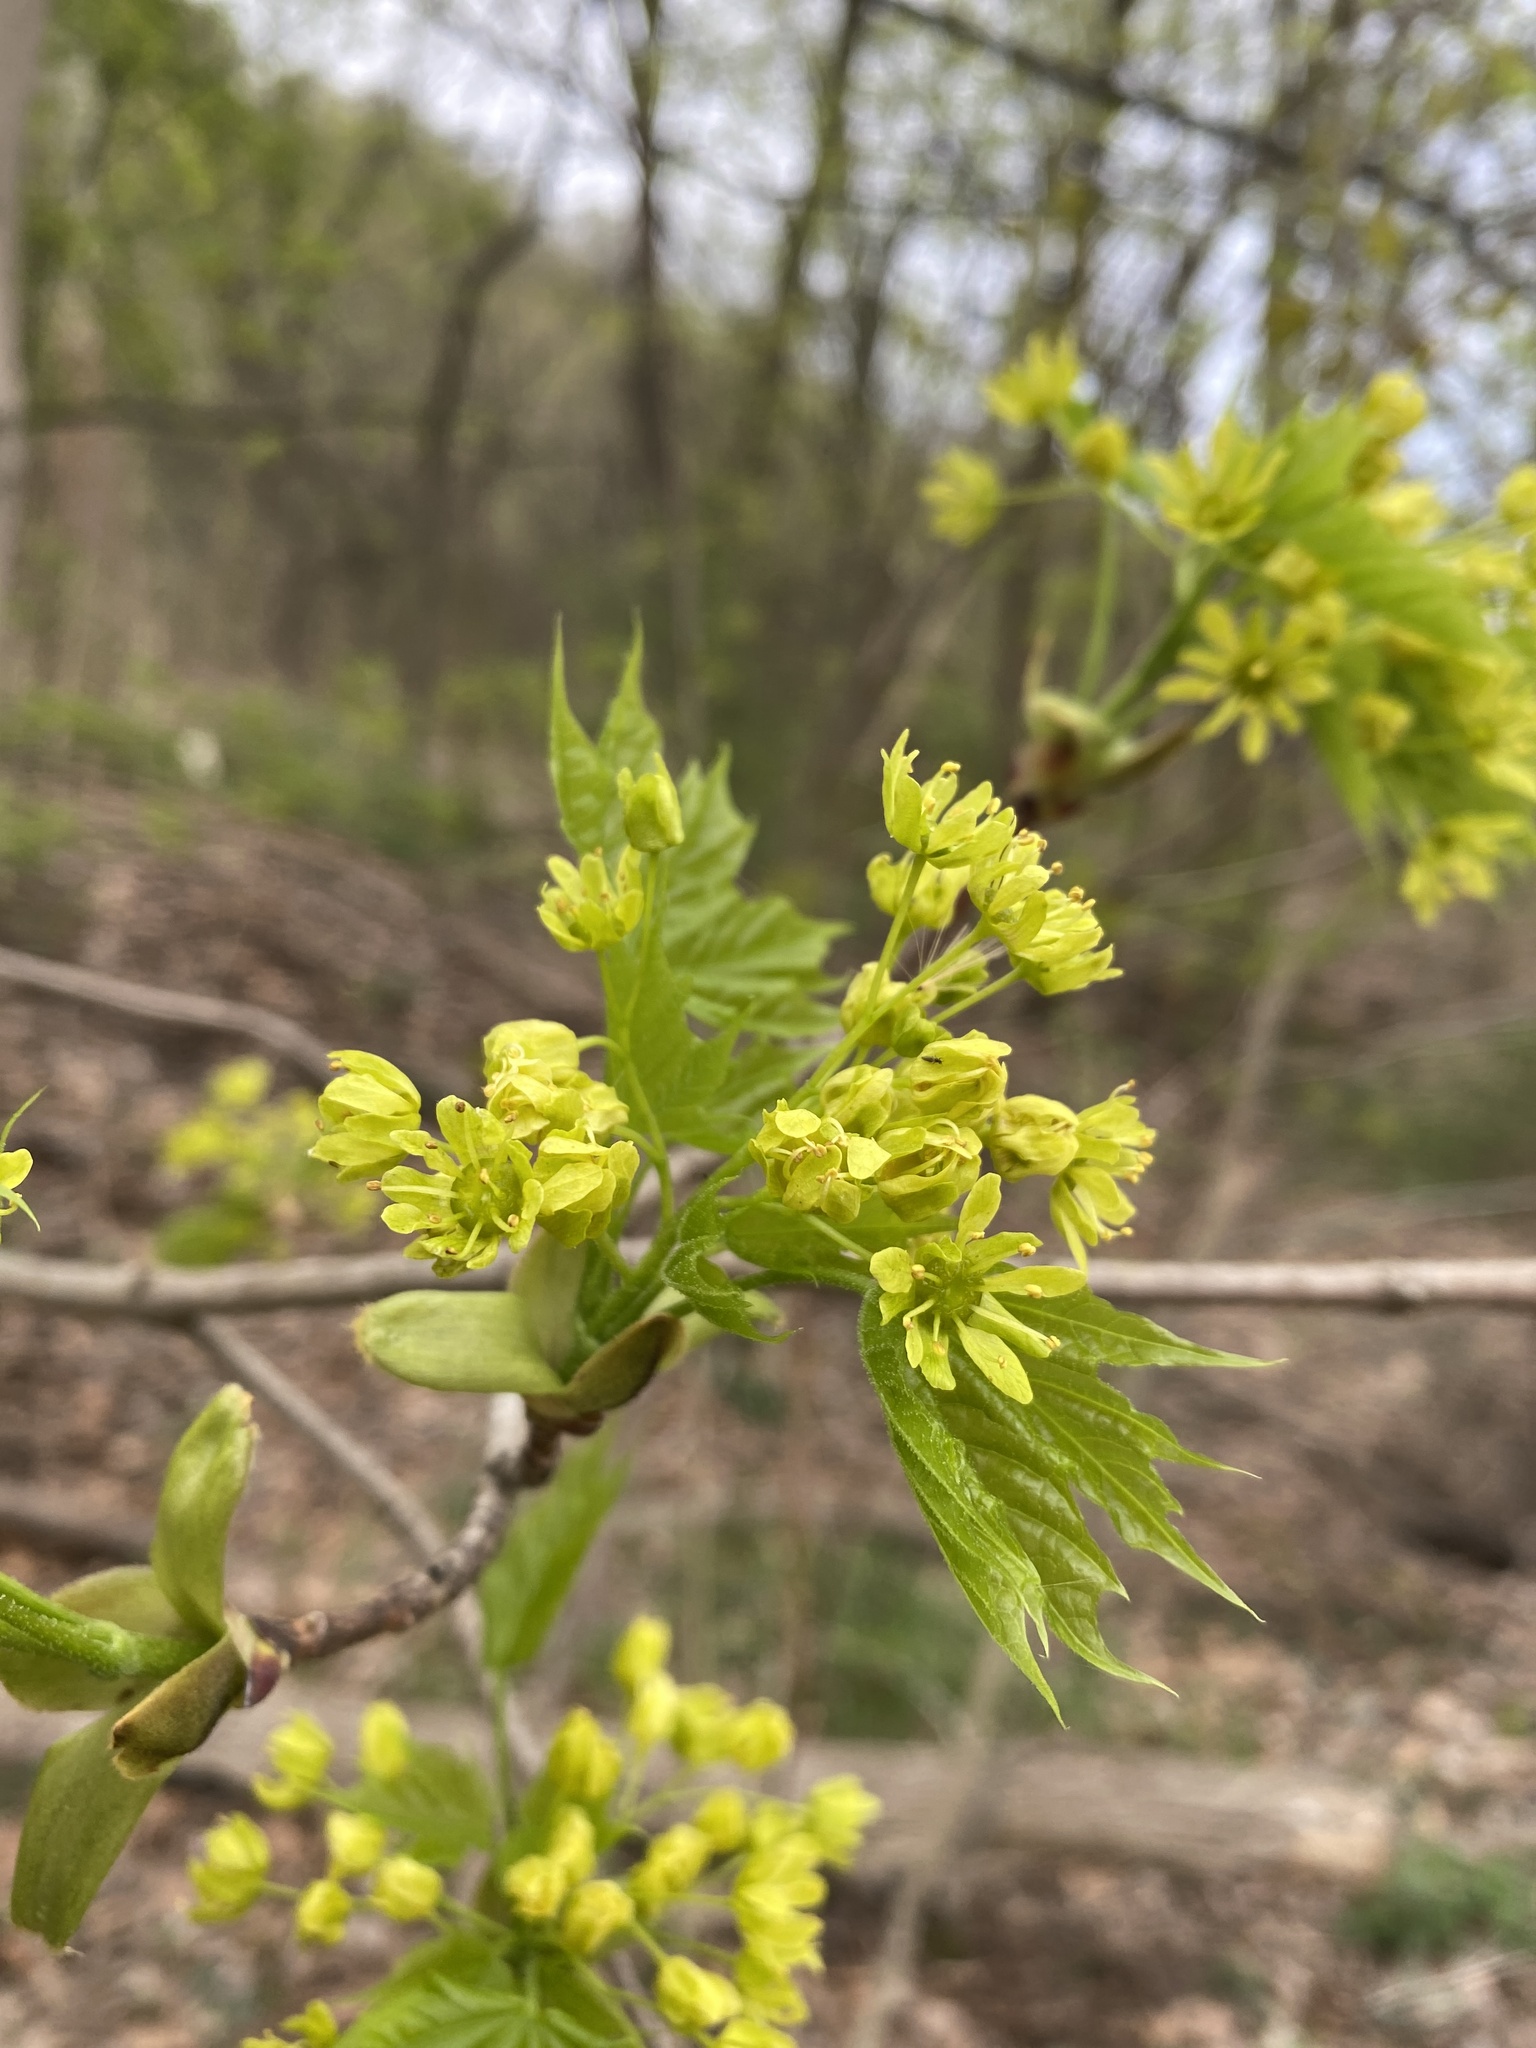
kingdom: Plantae
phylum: Tracheophyta
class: Magnoliopsida
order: Sapindales
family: Sapindaceae
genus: Acer
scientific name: Acer platanoides
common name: Norway maple
